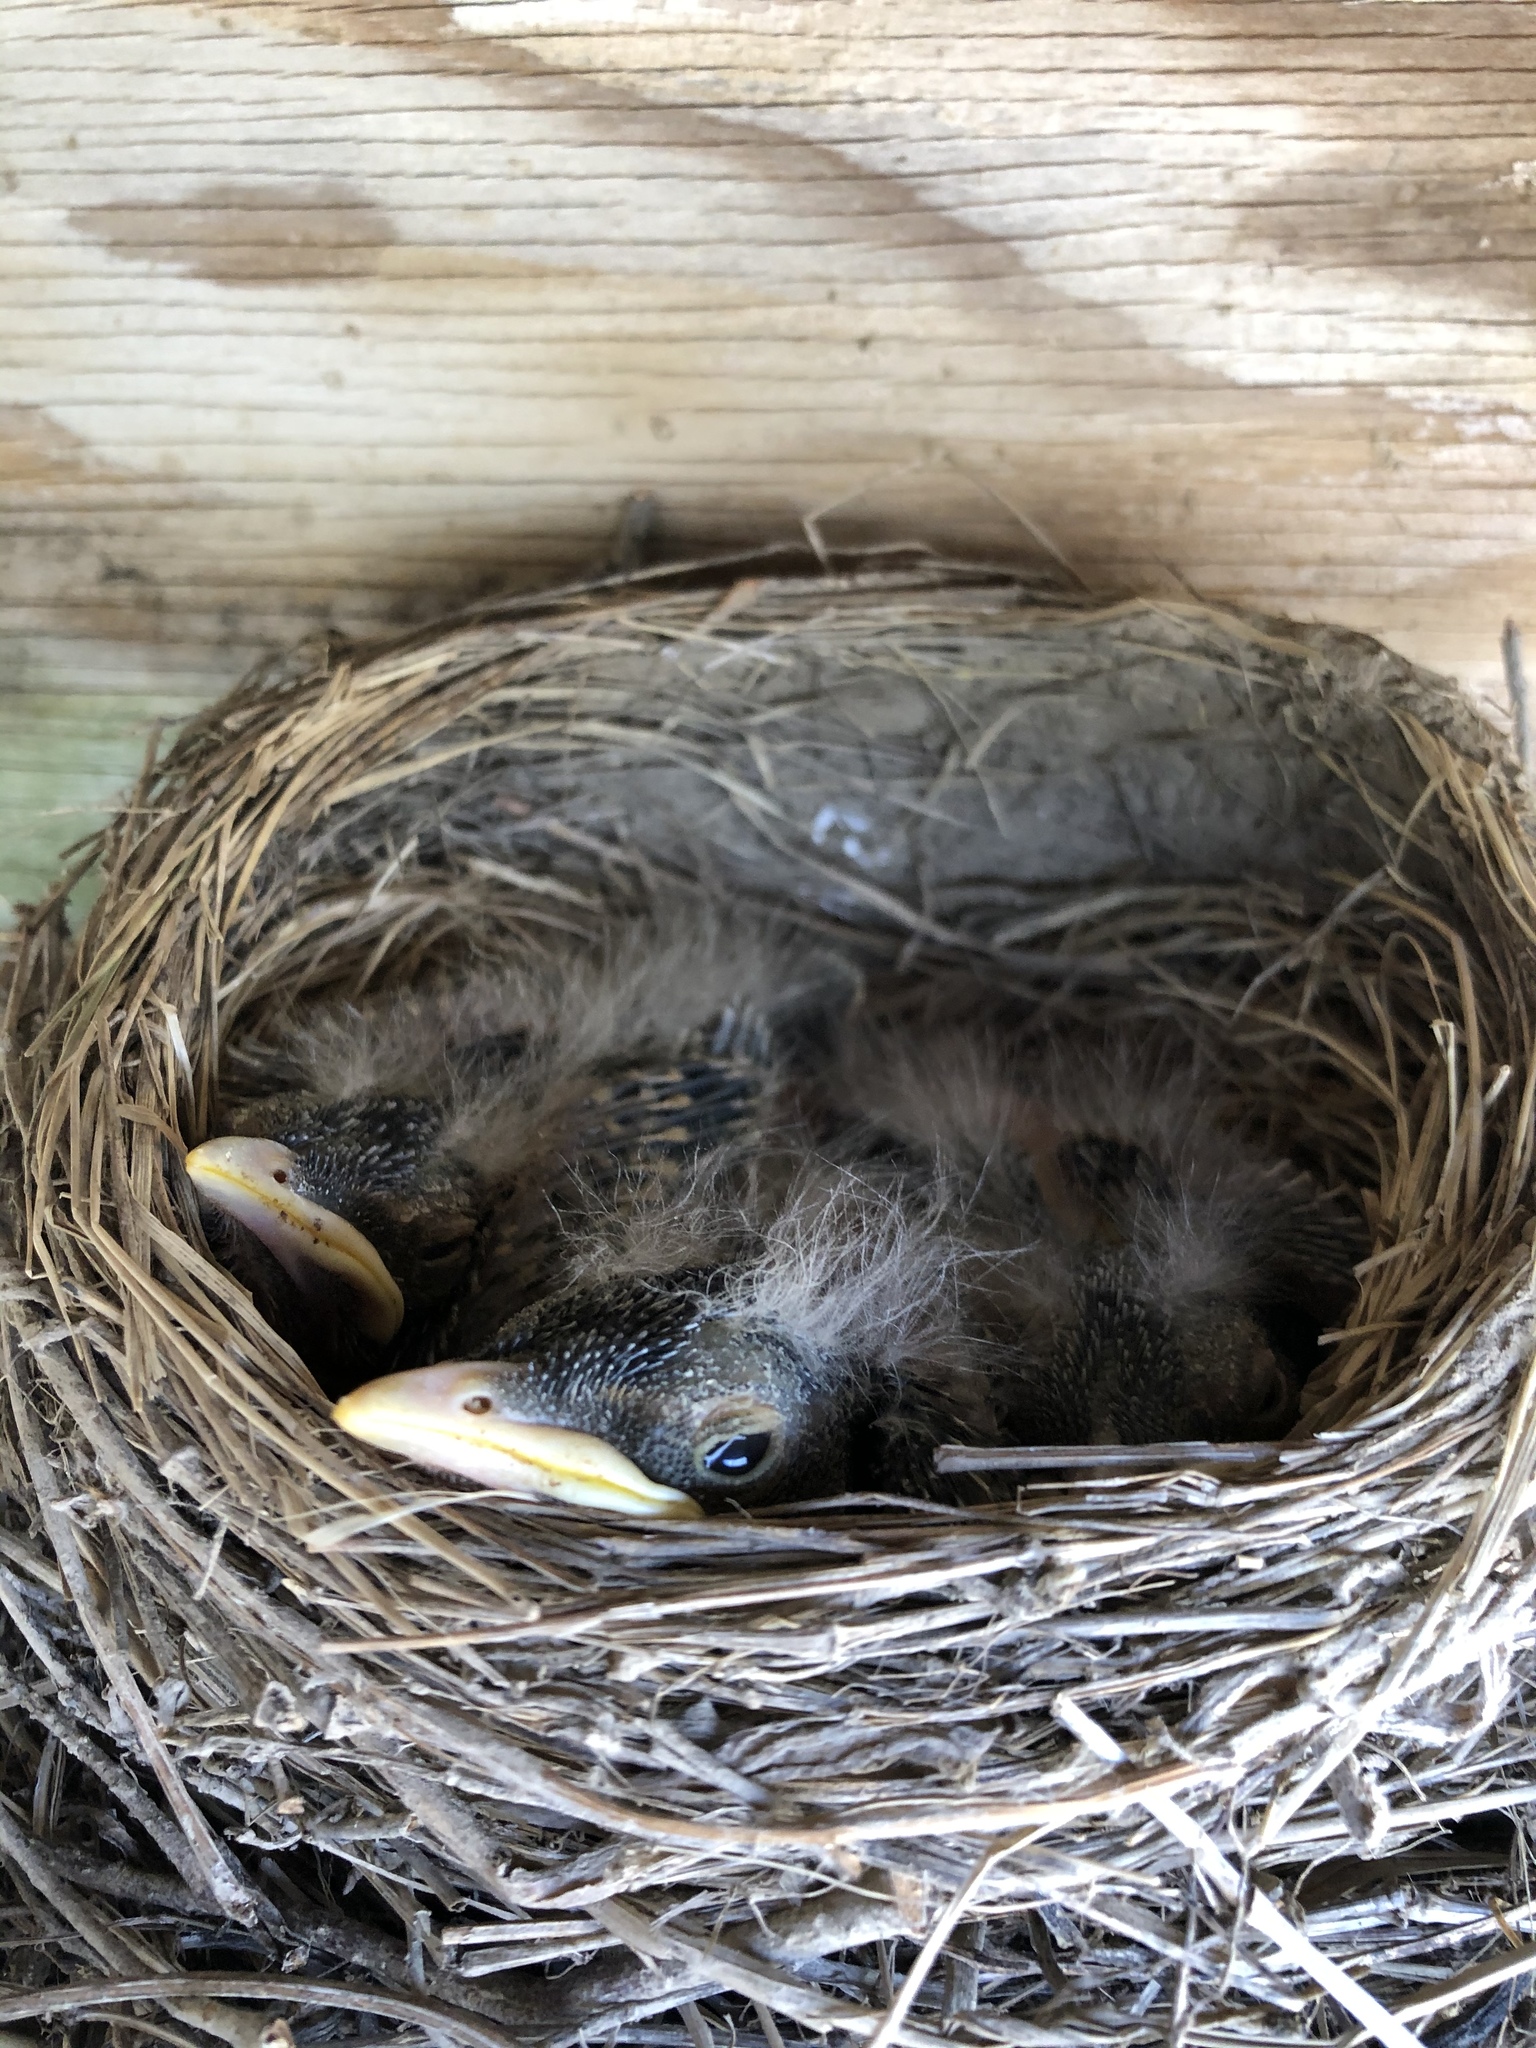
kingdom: Animalia
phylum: Chordata
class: Aves
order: Passeriformes
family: Turdidae
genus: Turdus
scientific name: Turdus migratorius
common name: American robin
